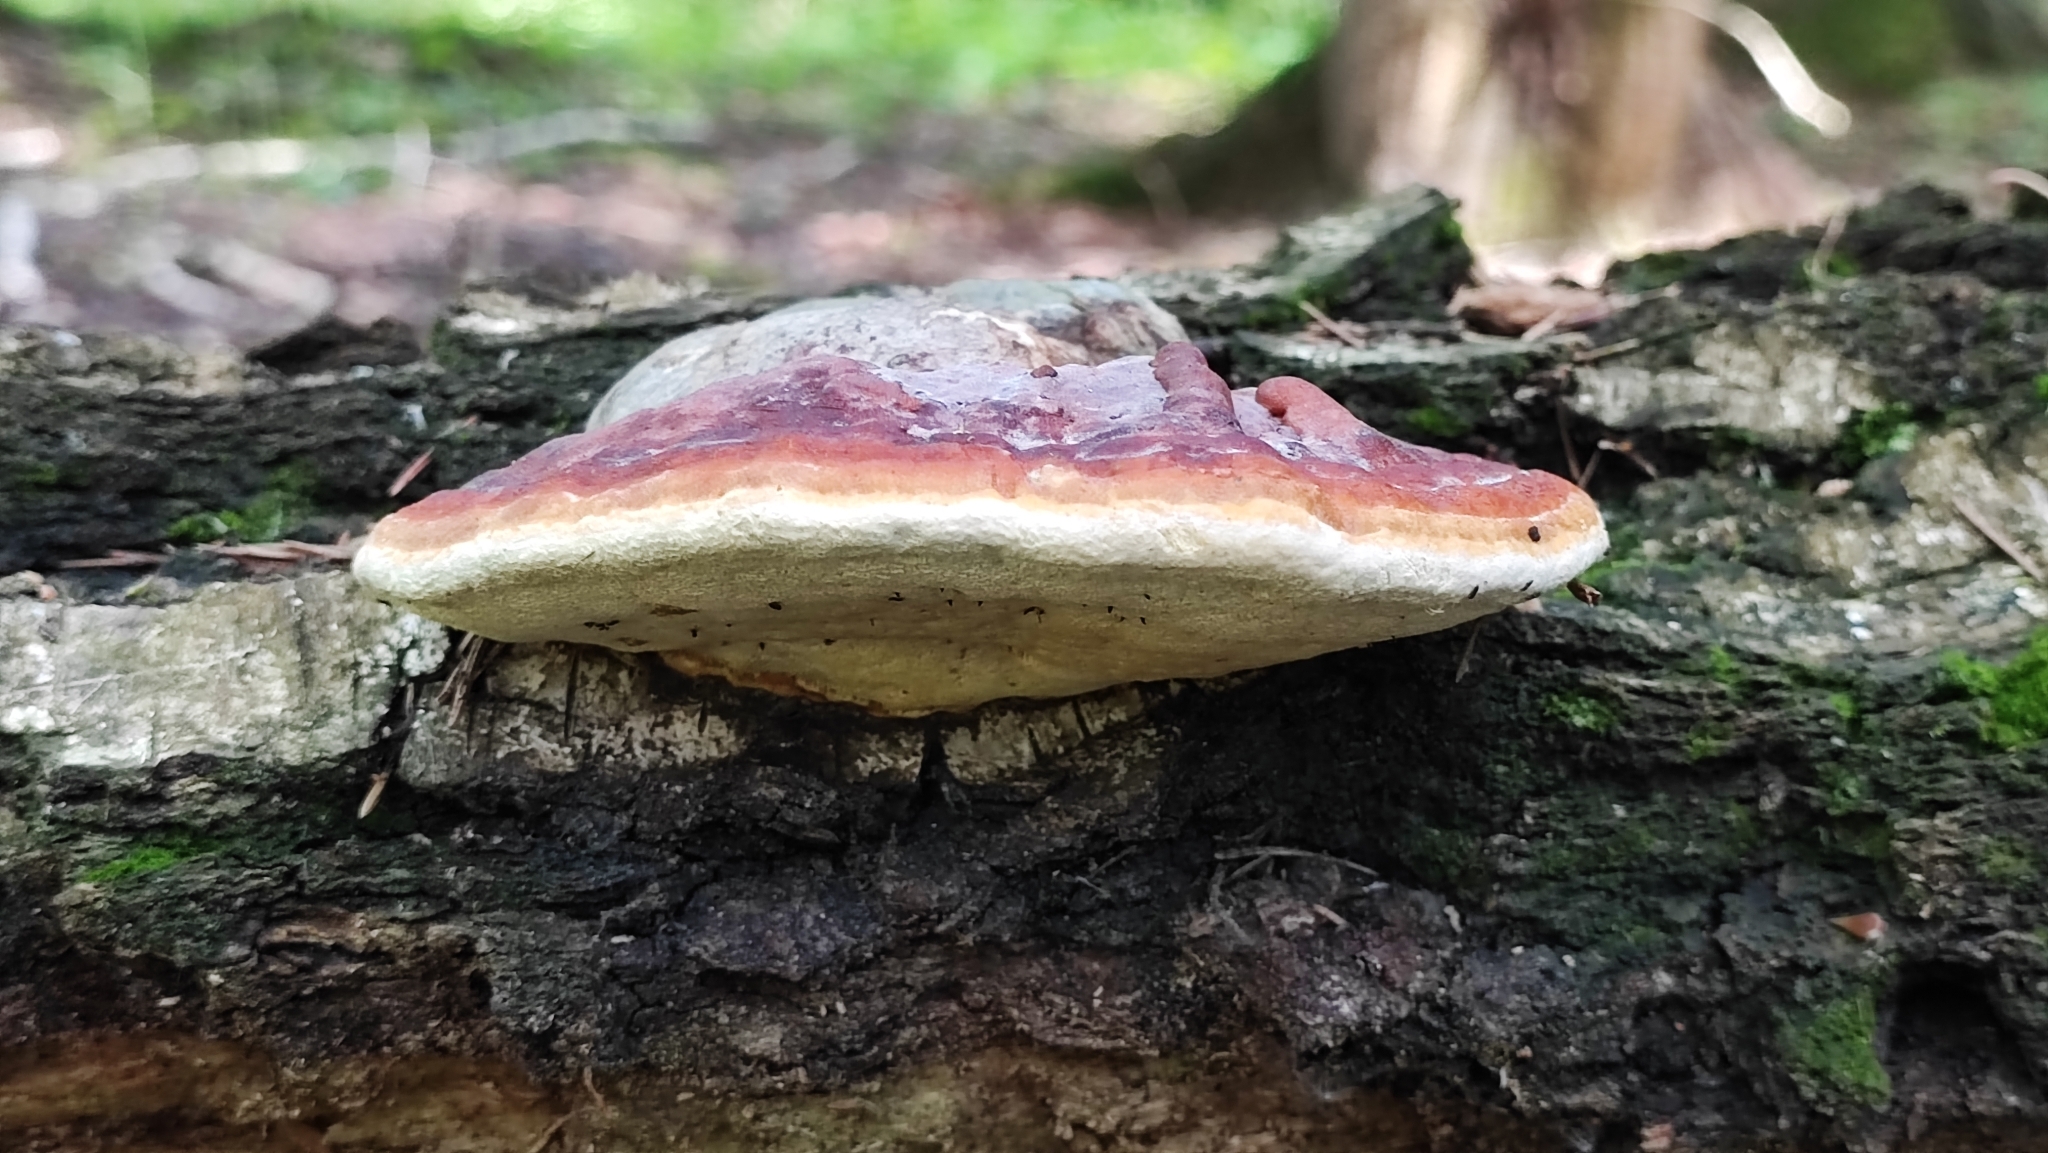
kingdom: Fungi
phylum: Basidiomycota
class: Agaricomycetes
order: Polyporales
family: Fomitopsidaceae
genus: Fomitopsis
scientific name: Fomitopsis pinicola
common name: Red-belted bracket
